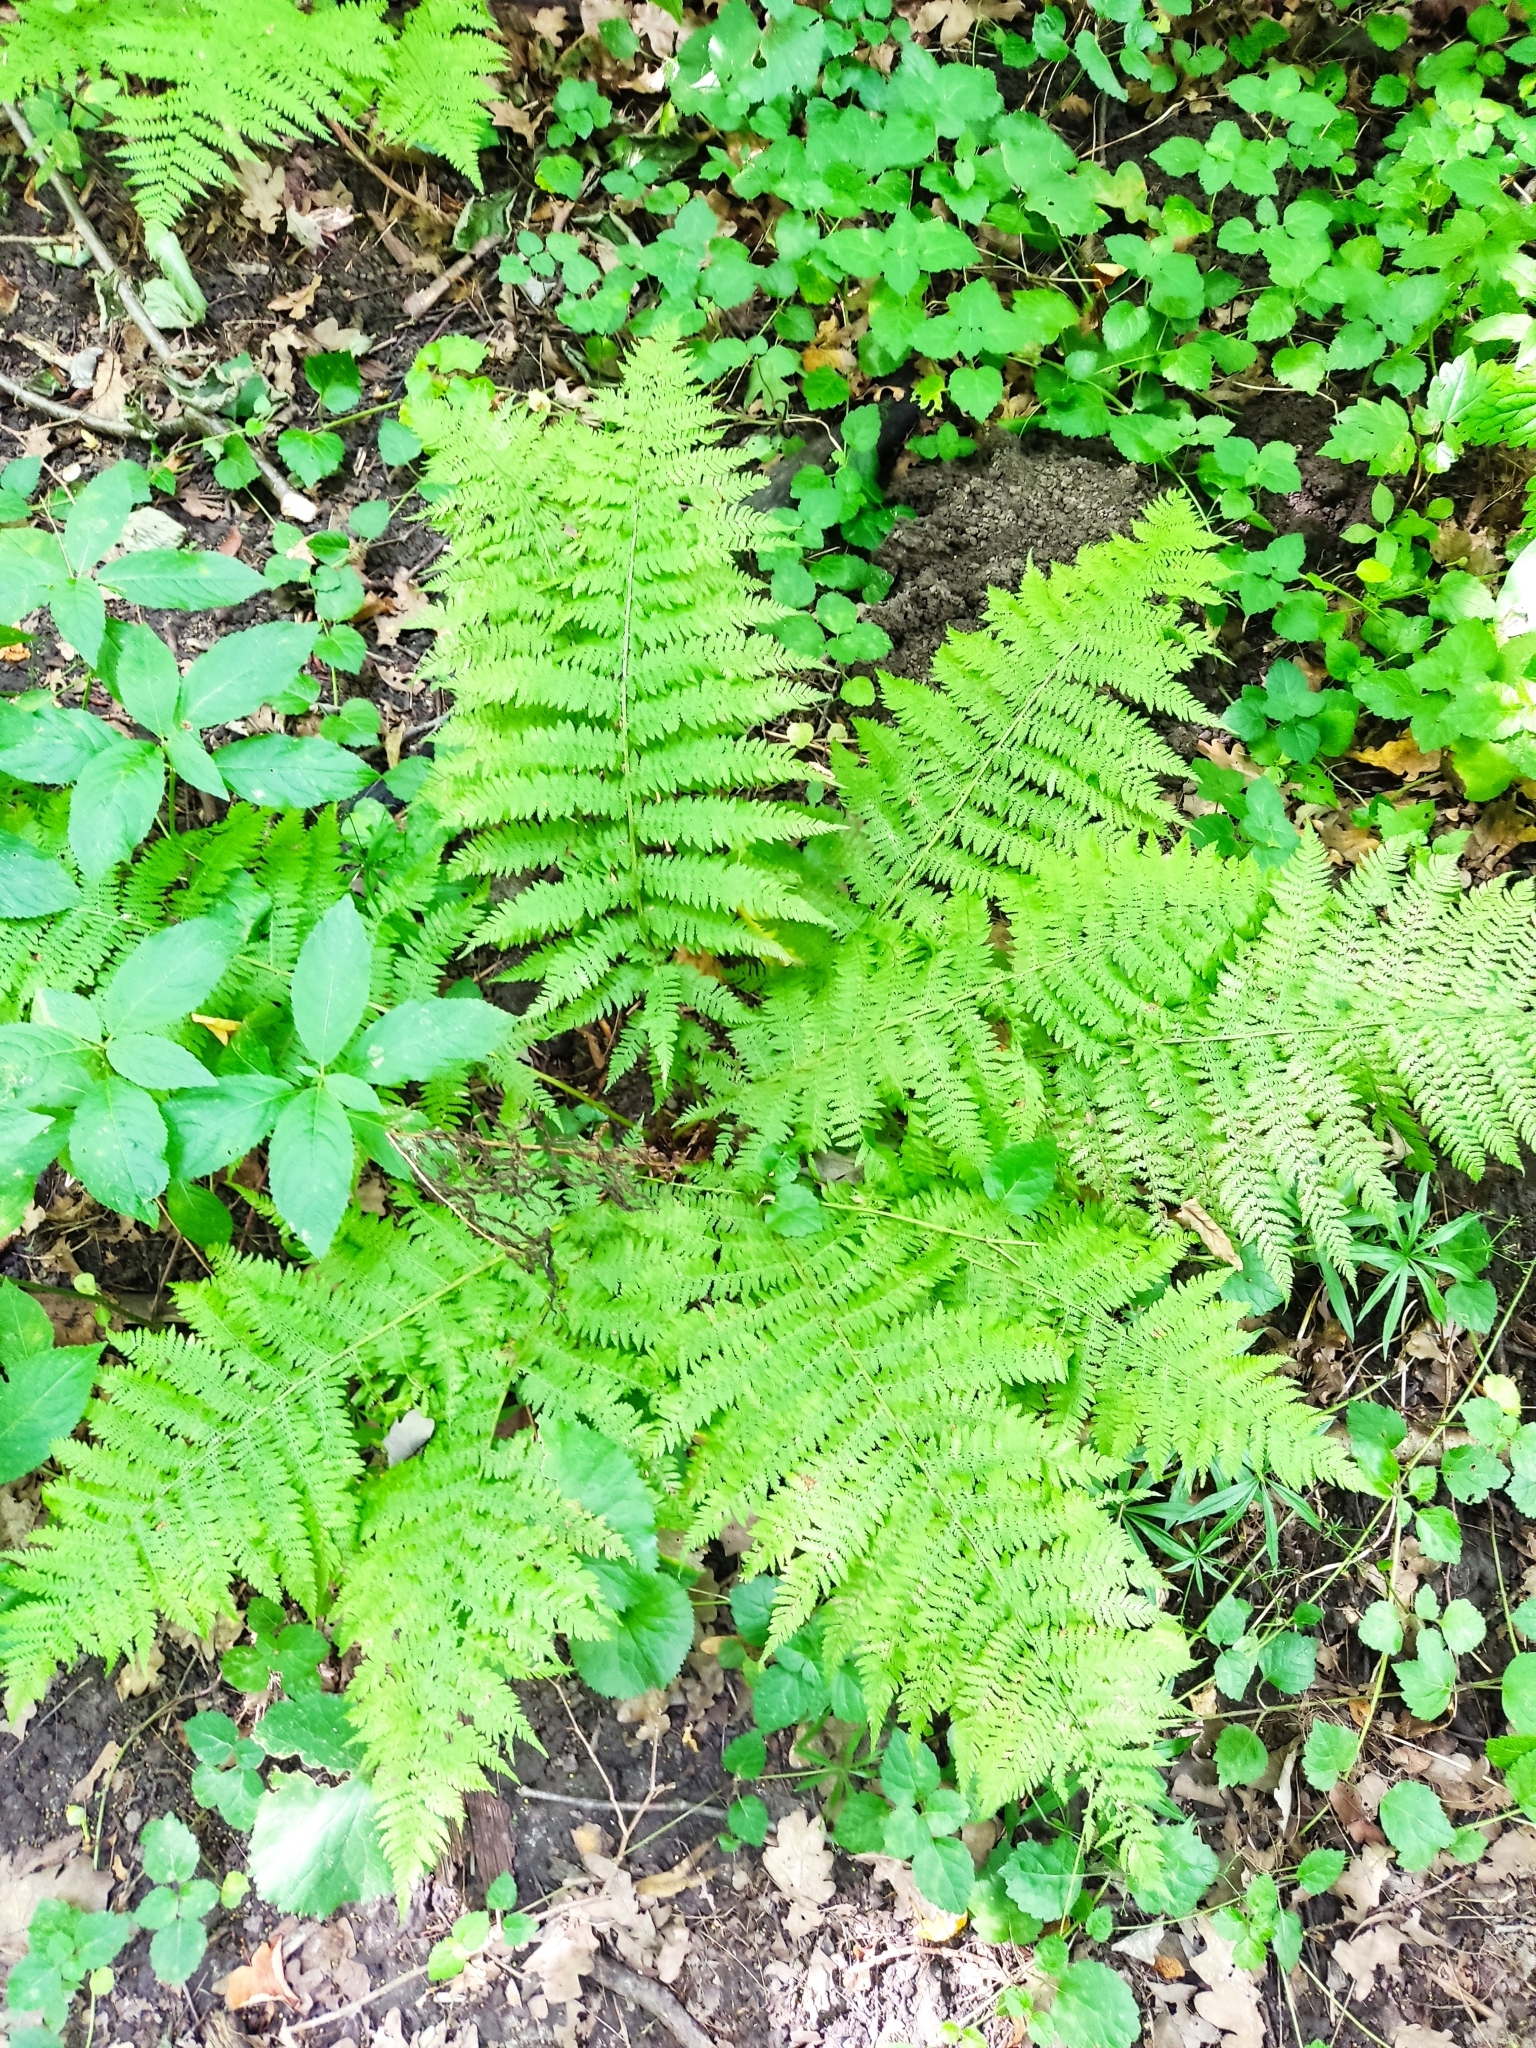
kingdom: Plantae
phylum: Tracheophyta
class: Polypodiopsida
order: Polypodiales
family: Athyriaceae
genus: Athyrium
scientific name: Athyrium filix-femina
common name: Lady fern
